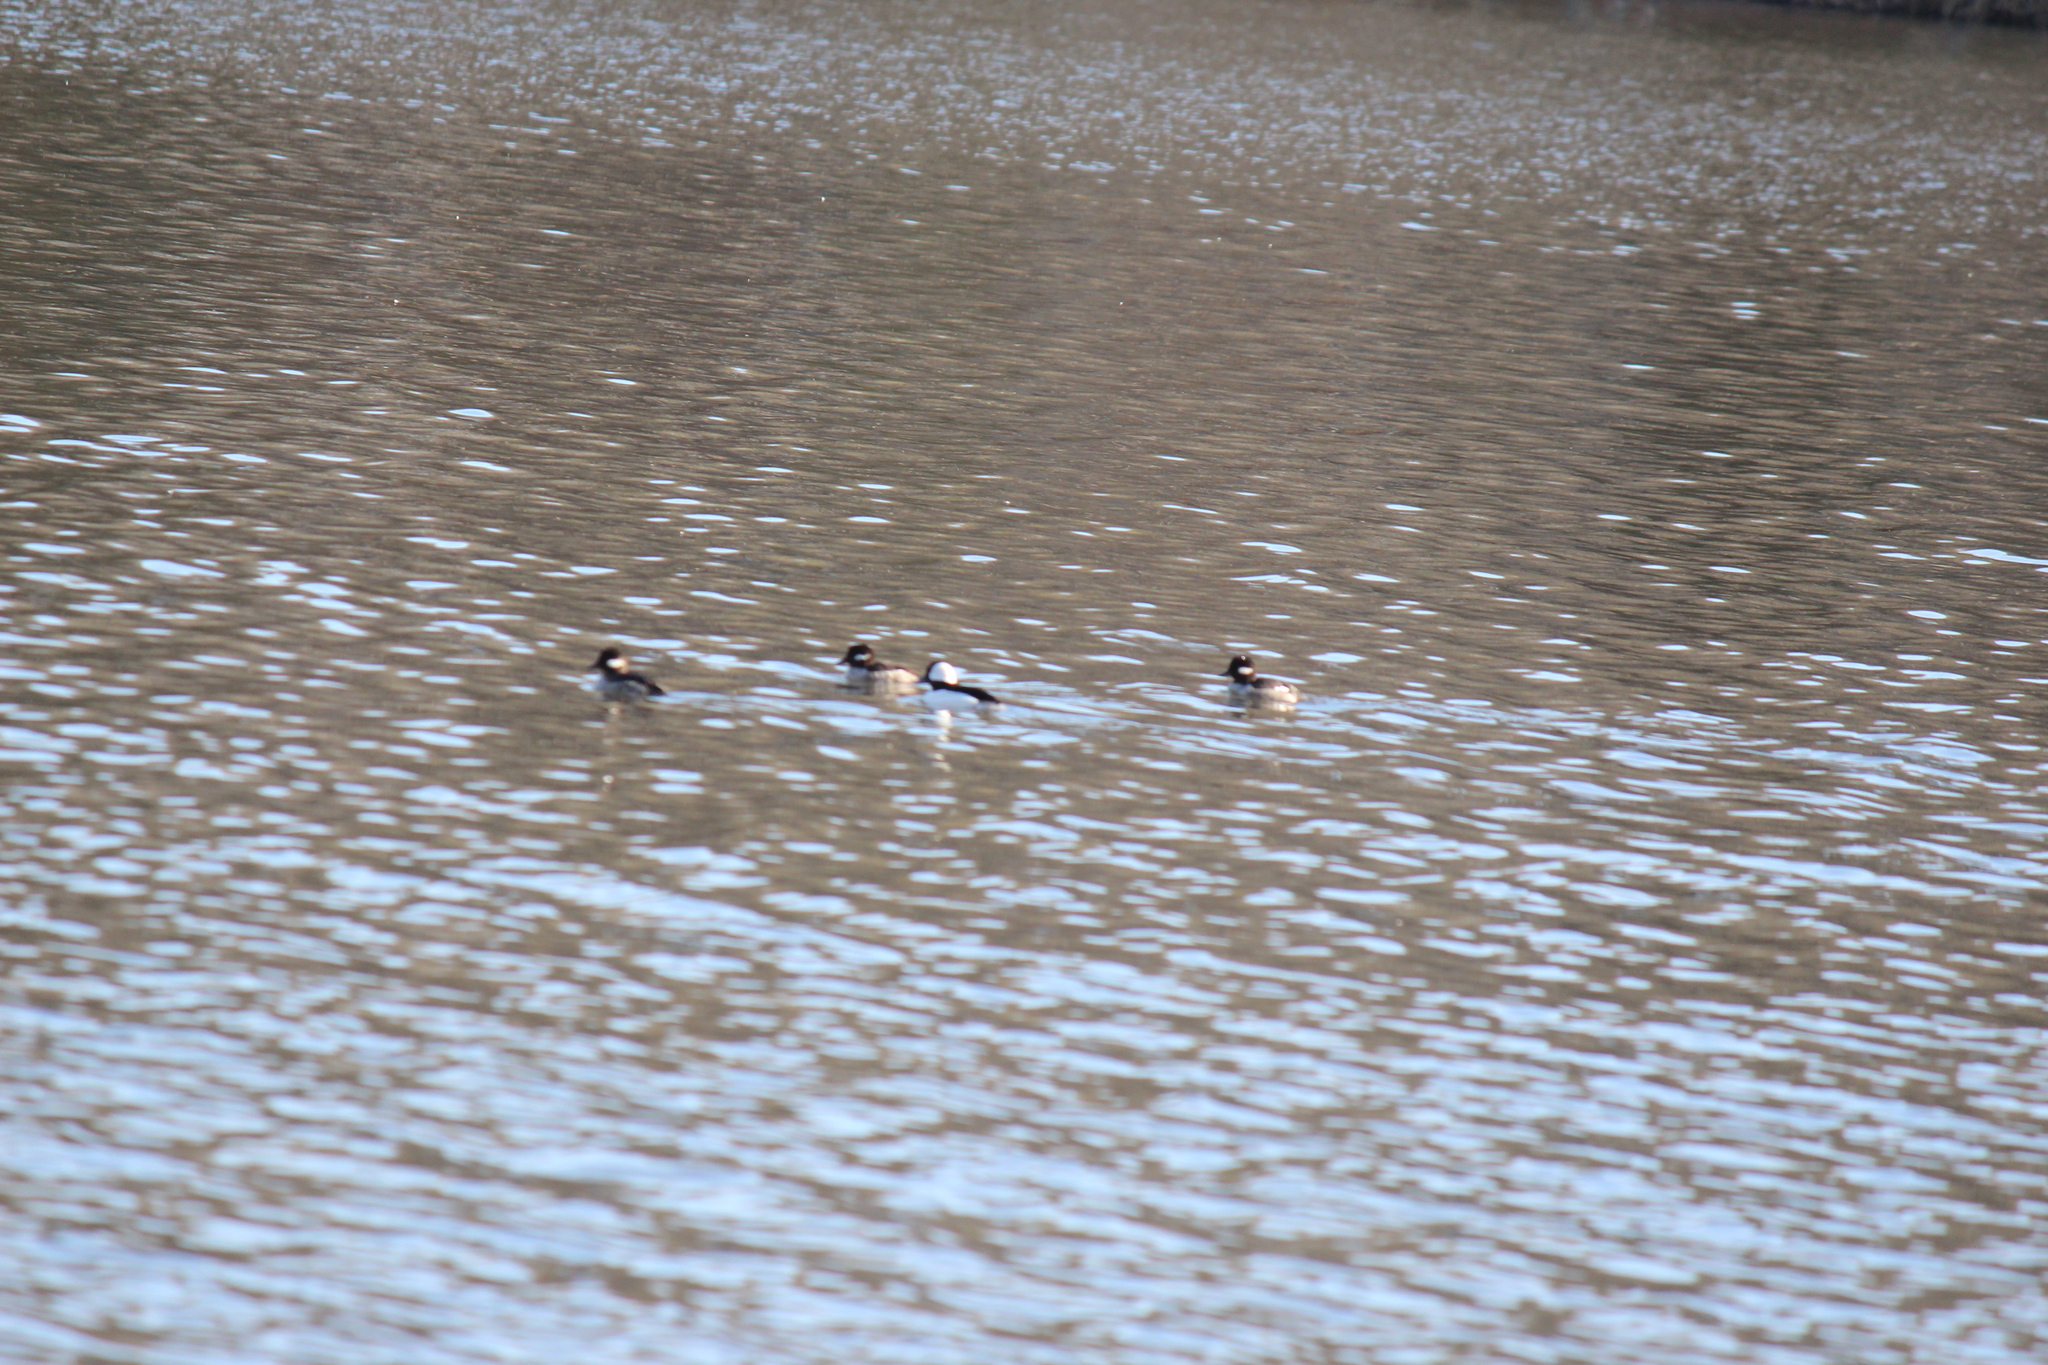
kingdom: Animalia
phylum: Chordata
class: Aves
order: Anseriformes
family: Anatidae
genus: Bucephala
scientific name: Bucephala albeola
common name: Bufflehead
